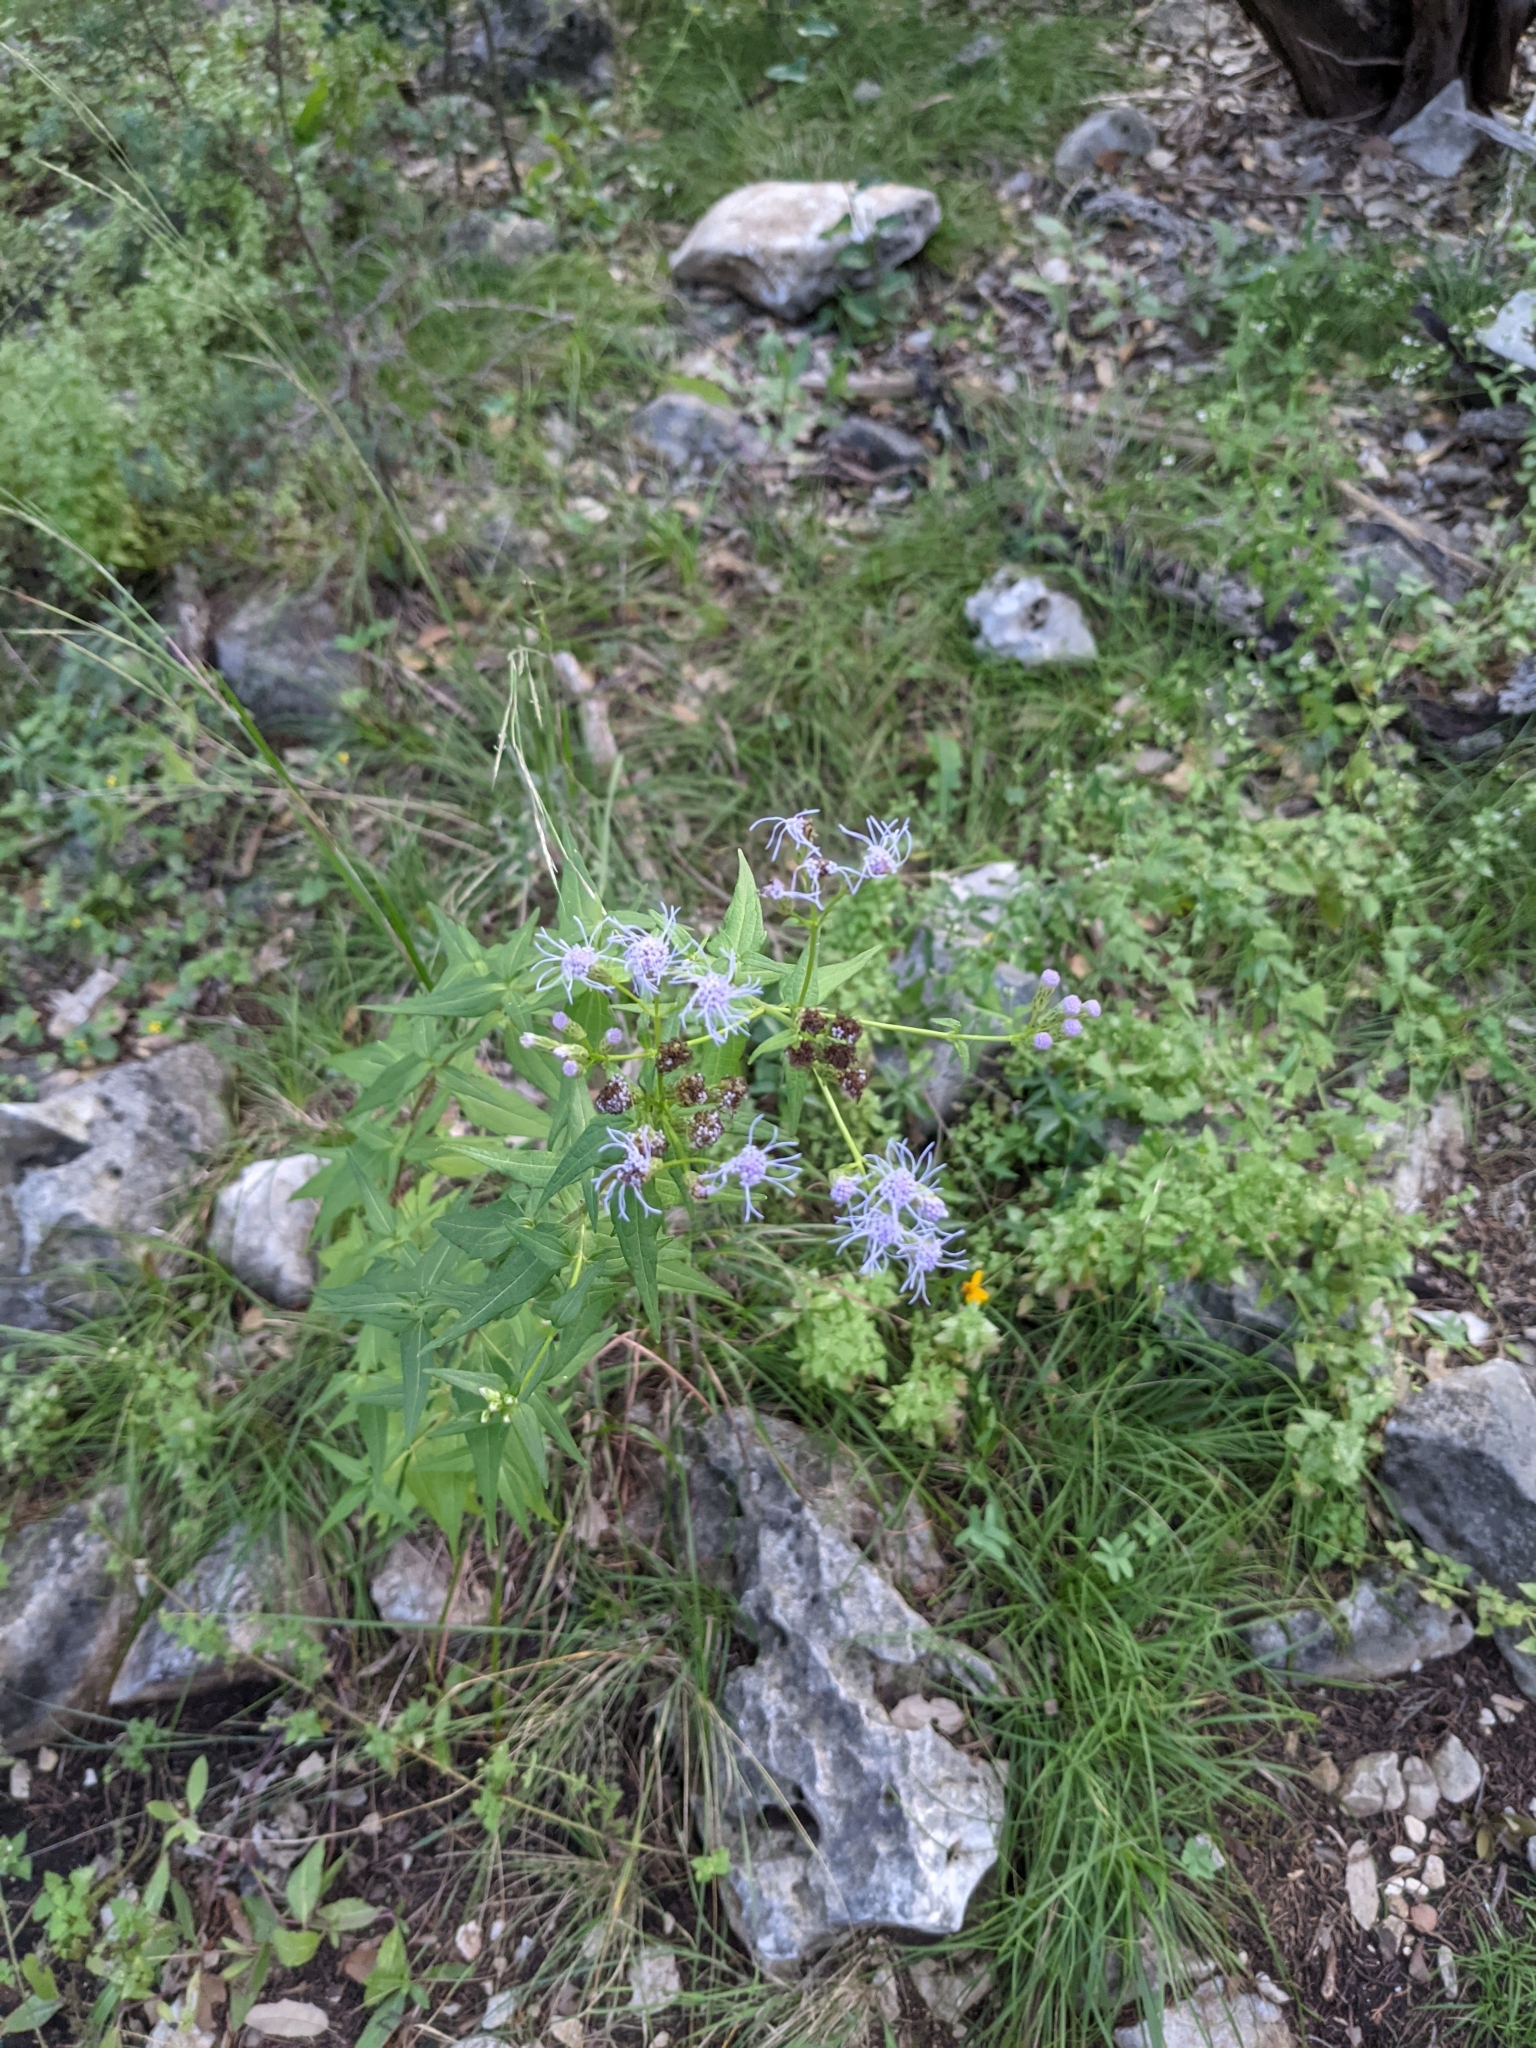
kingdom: Plantae
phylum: Tracheophyta
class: Magnoliopsida
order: Asterales
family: Asteraceae
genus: Chromolaena
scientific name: Chromolaena odorata
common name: Siamweed
